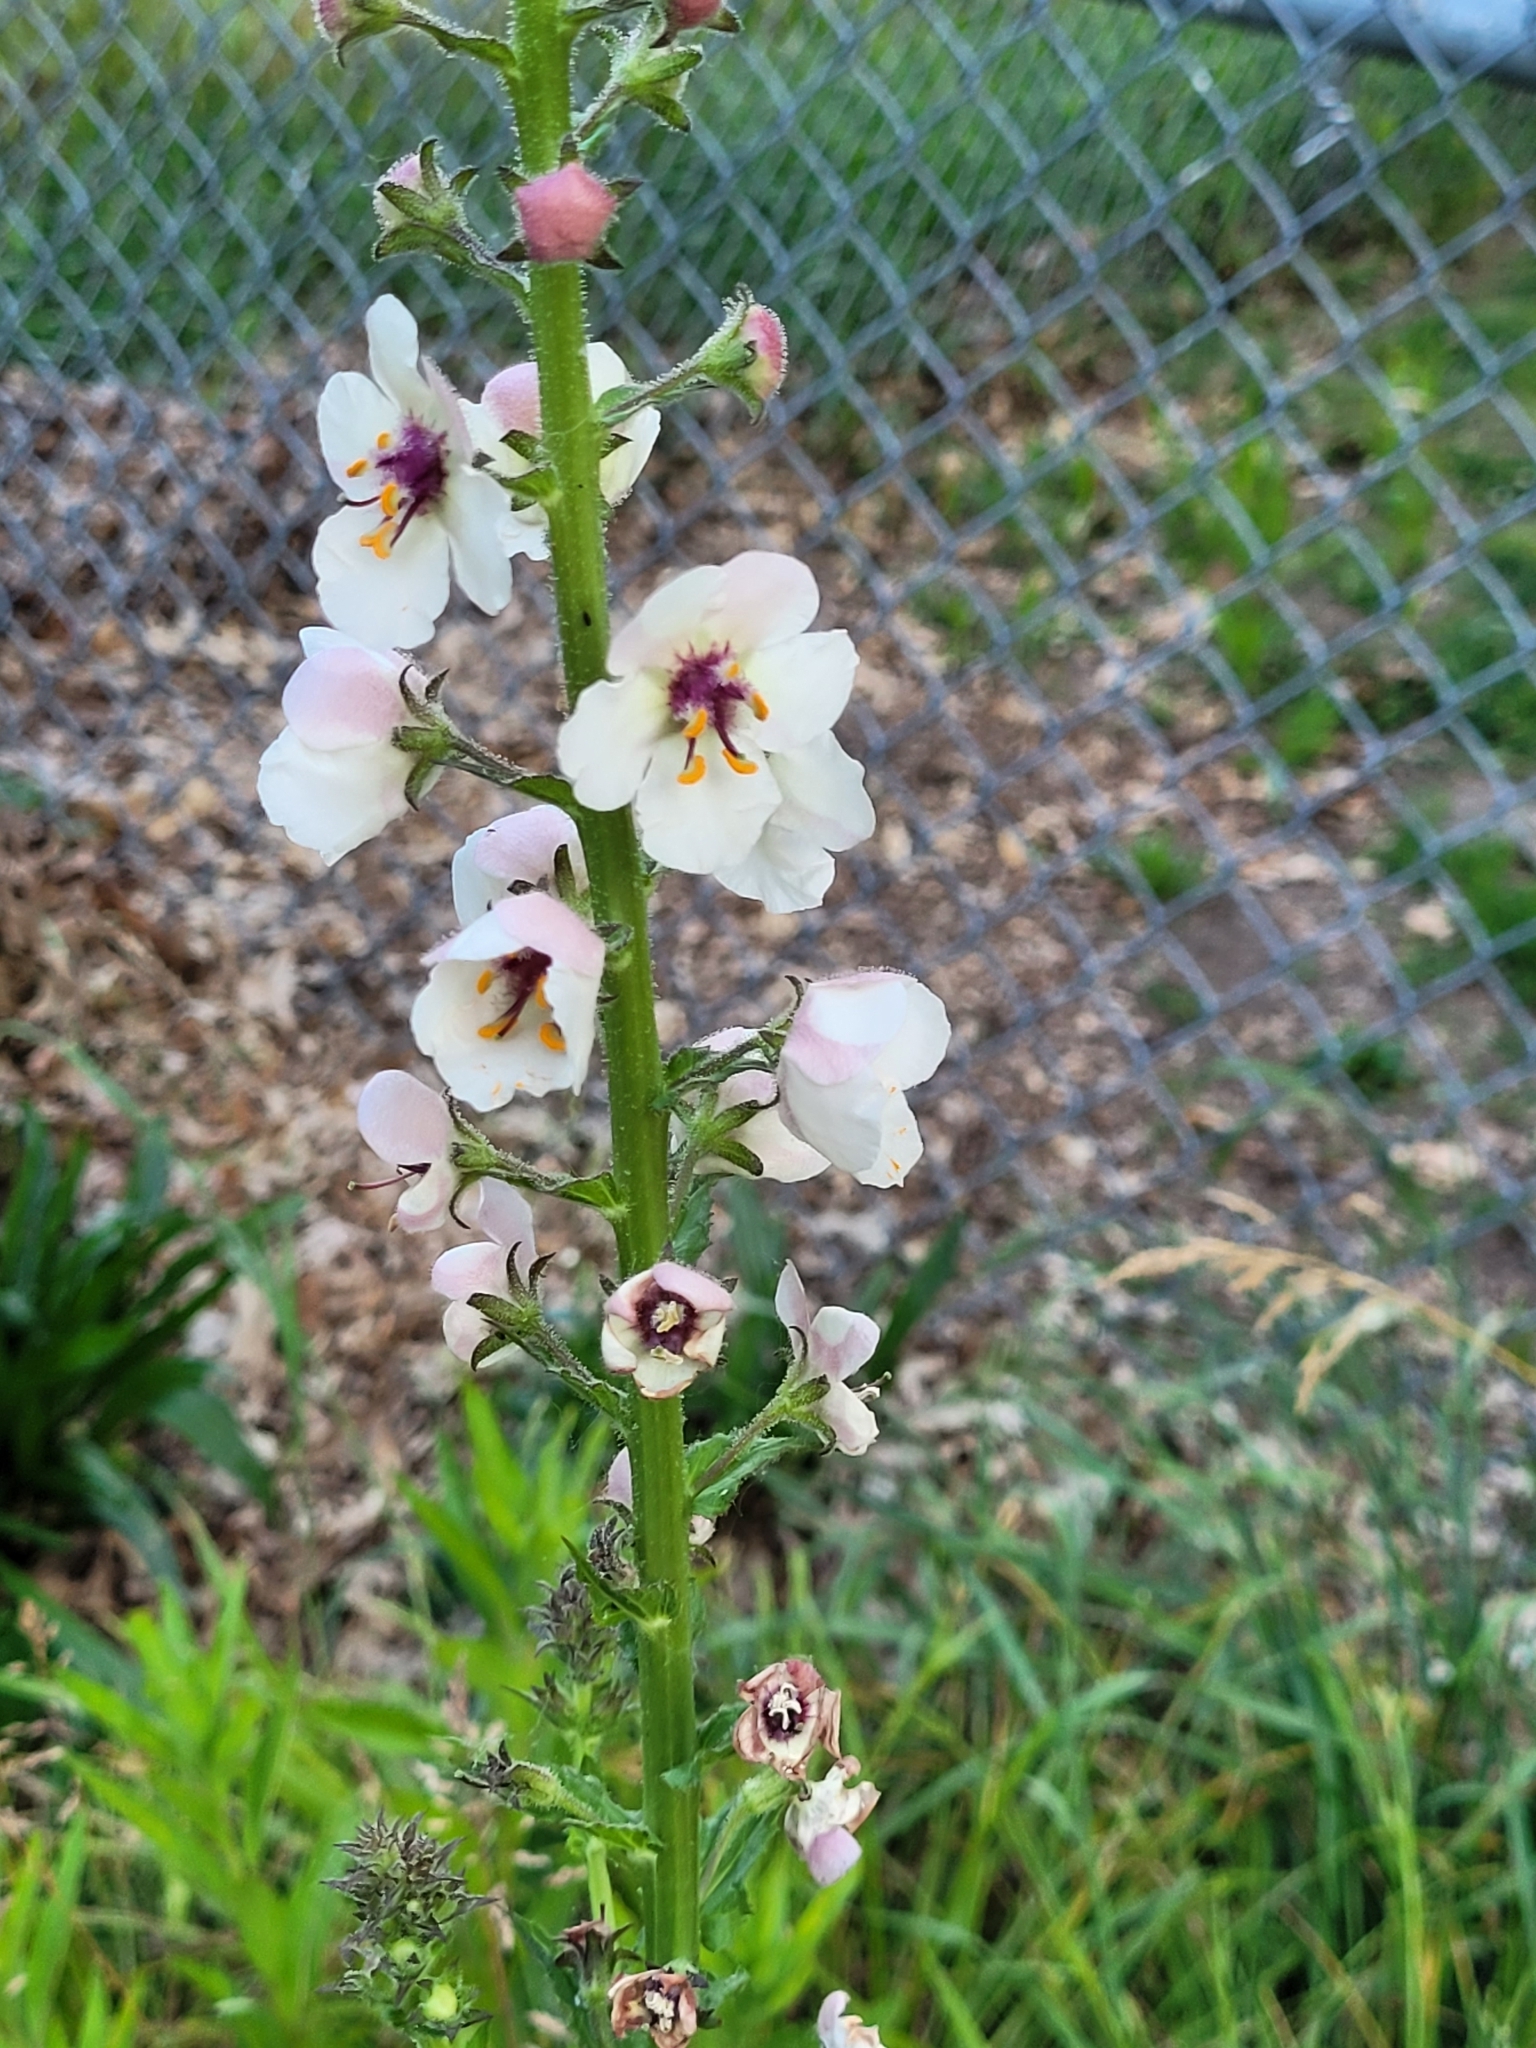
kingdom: Plantae
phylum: Tracheophyta
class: Magnoliopsida
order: Lamiales
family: Scrophulariaceae
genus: Verbascum
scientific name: Verbascum blattaria
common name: Moth mullein
